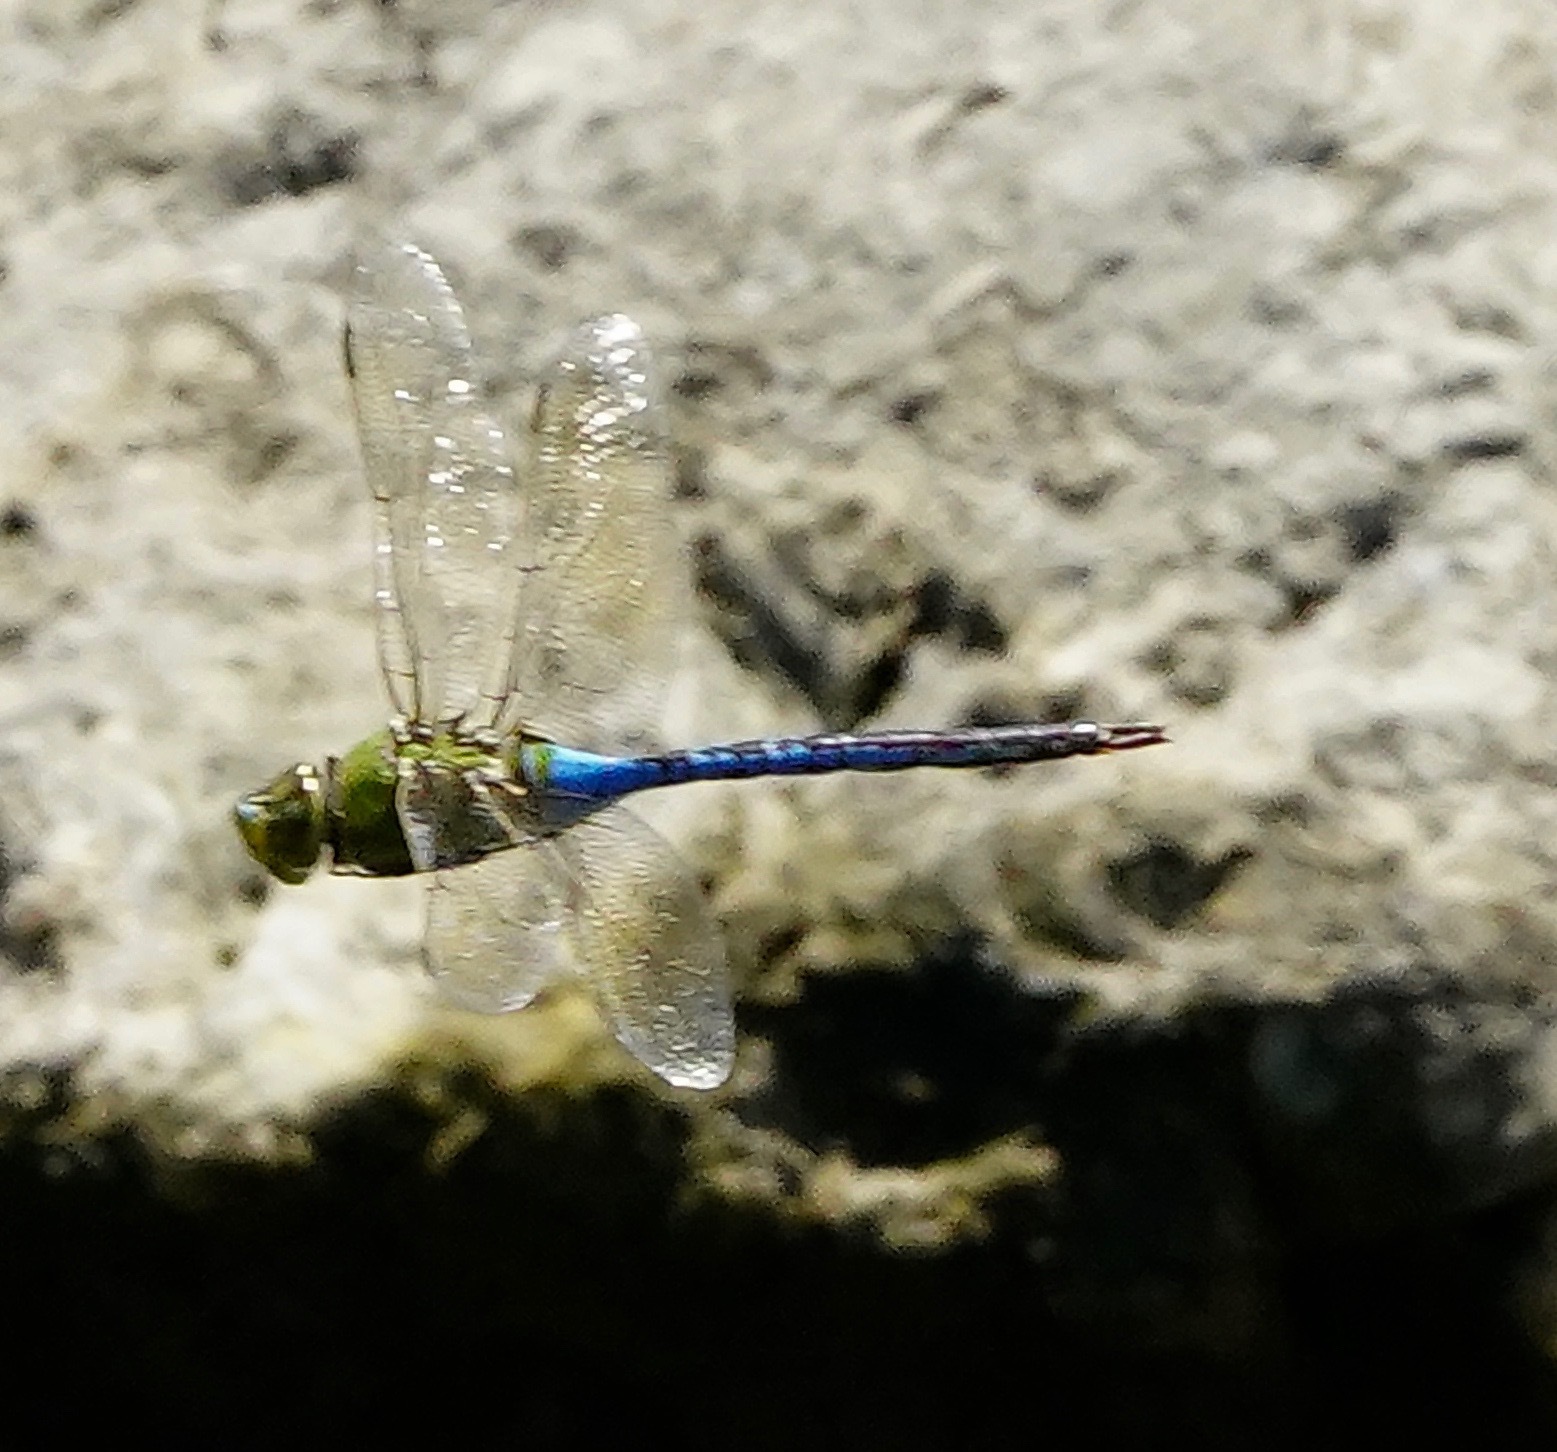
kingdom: Animalia
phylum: Arthropoda
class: Insecta
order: Odonata
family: Aeshnidae
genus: Anax
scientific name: Anax junius
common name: Common green darner
